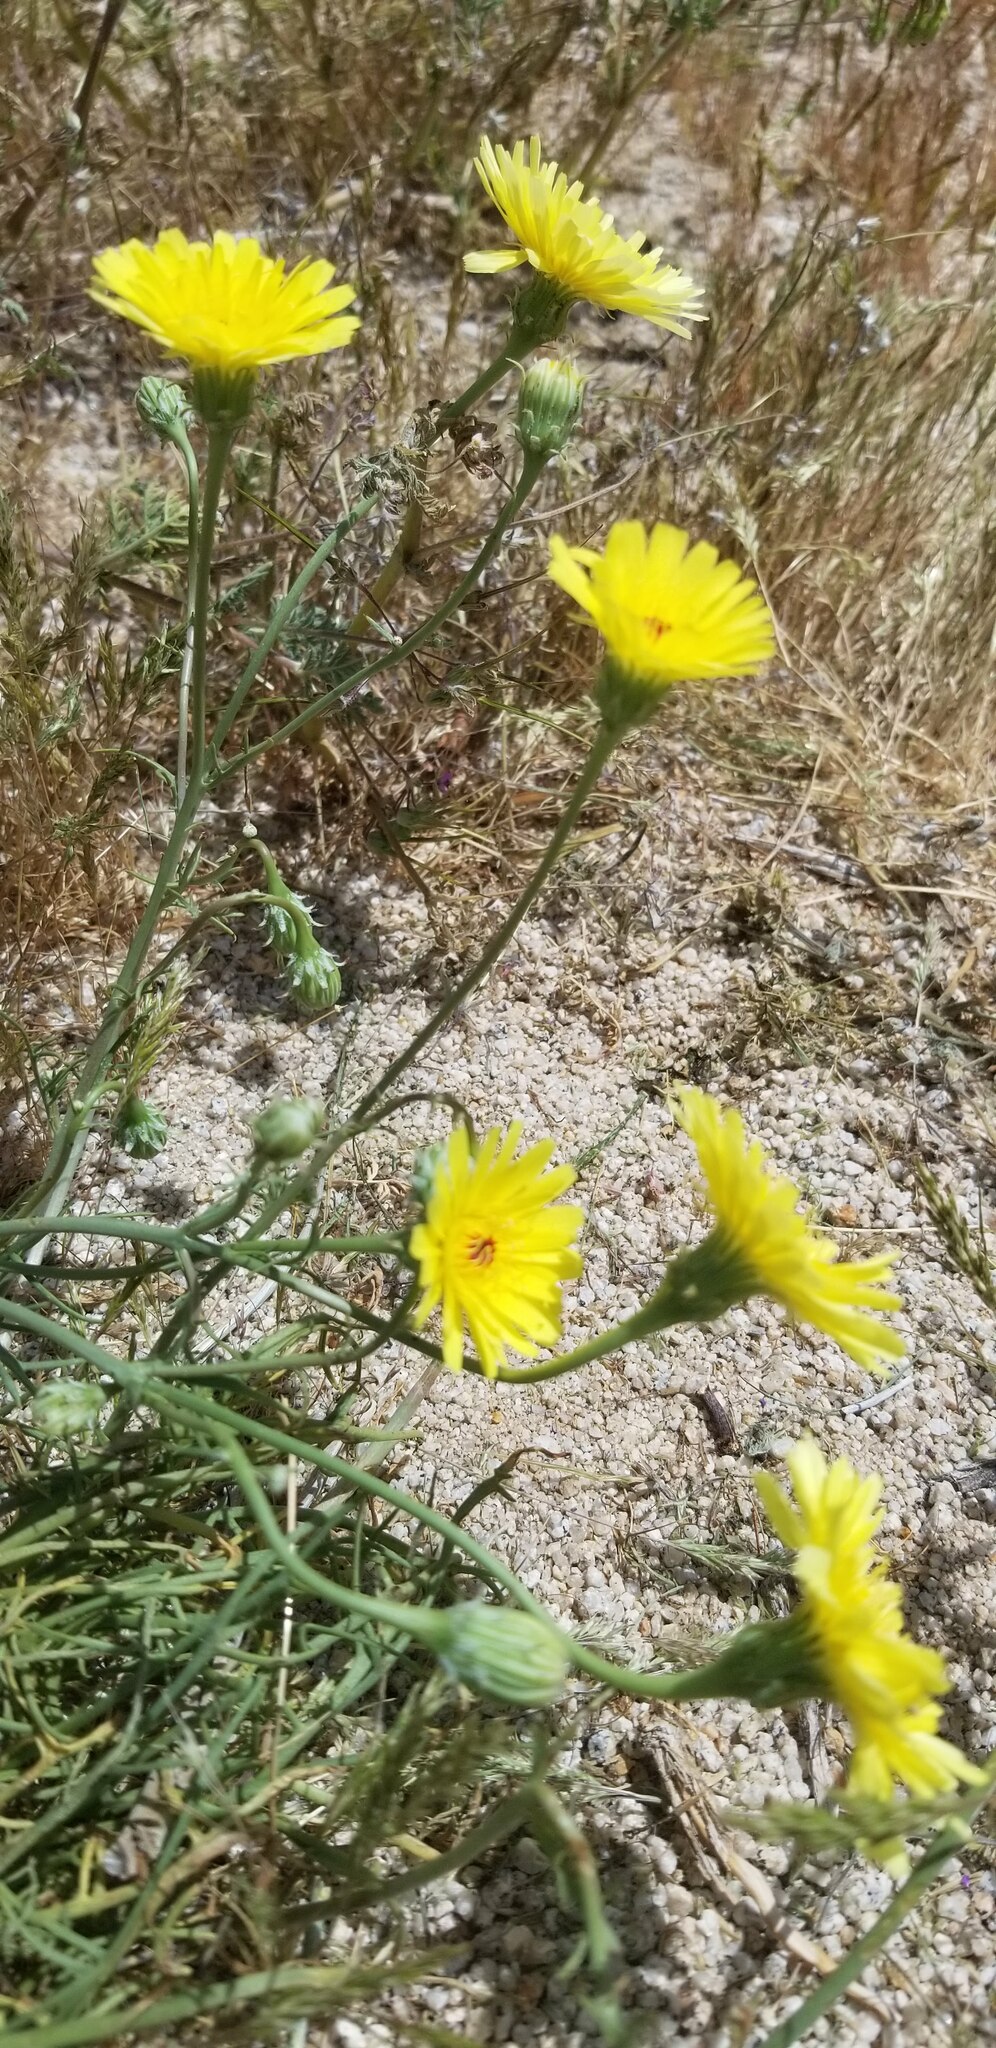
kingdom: Plantae
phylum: Tracheophyta
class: Magnoliopsida
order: Asterales
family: Asteraceae
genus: Malacothrix
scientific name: Malacothrix glabrata
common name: Smooth desert-dandelion
